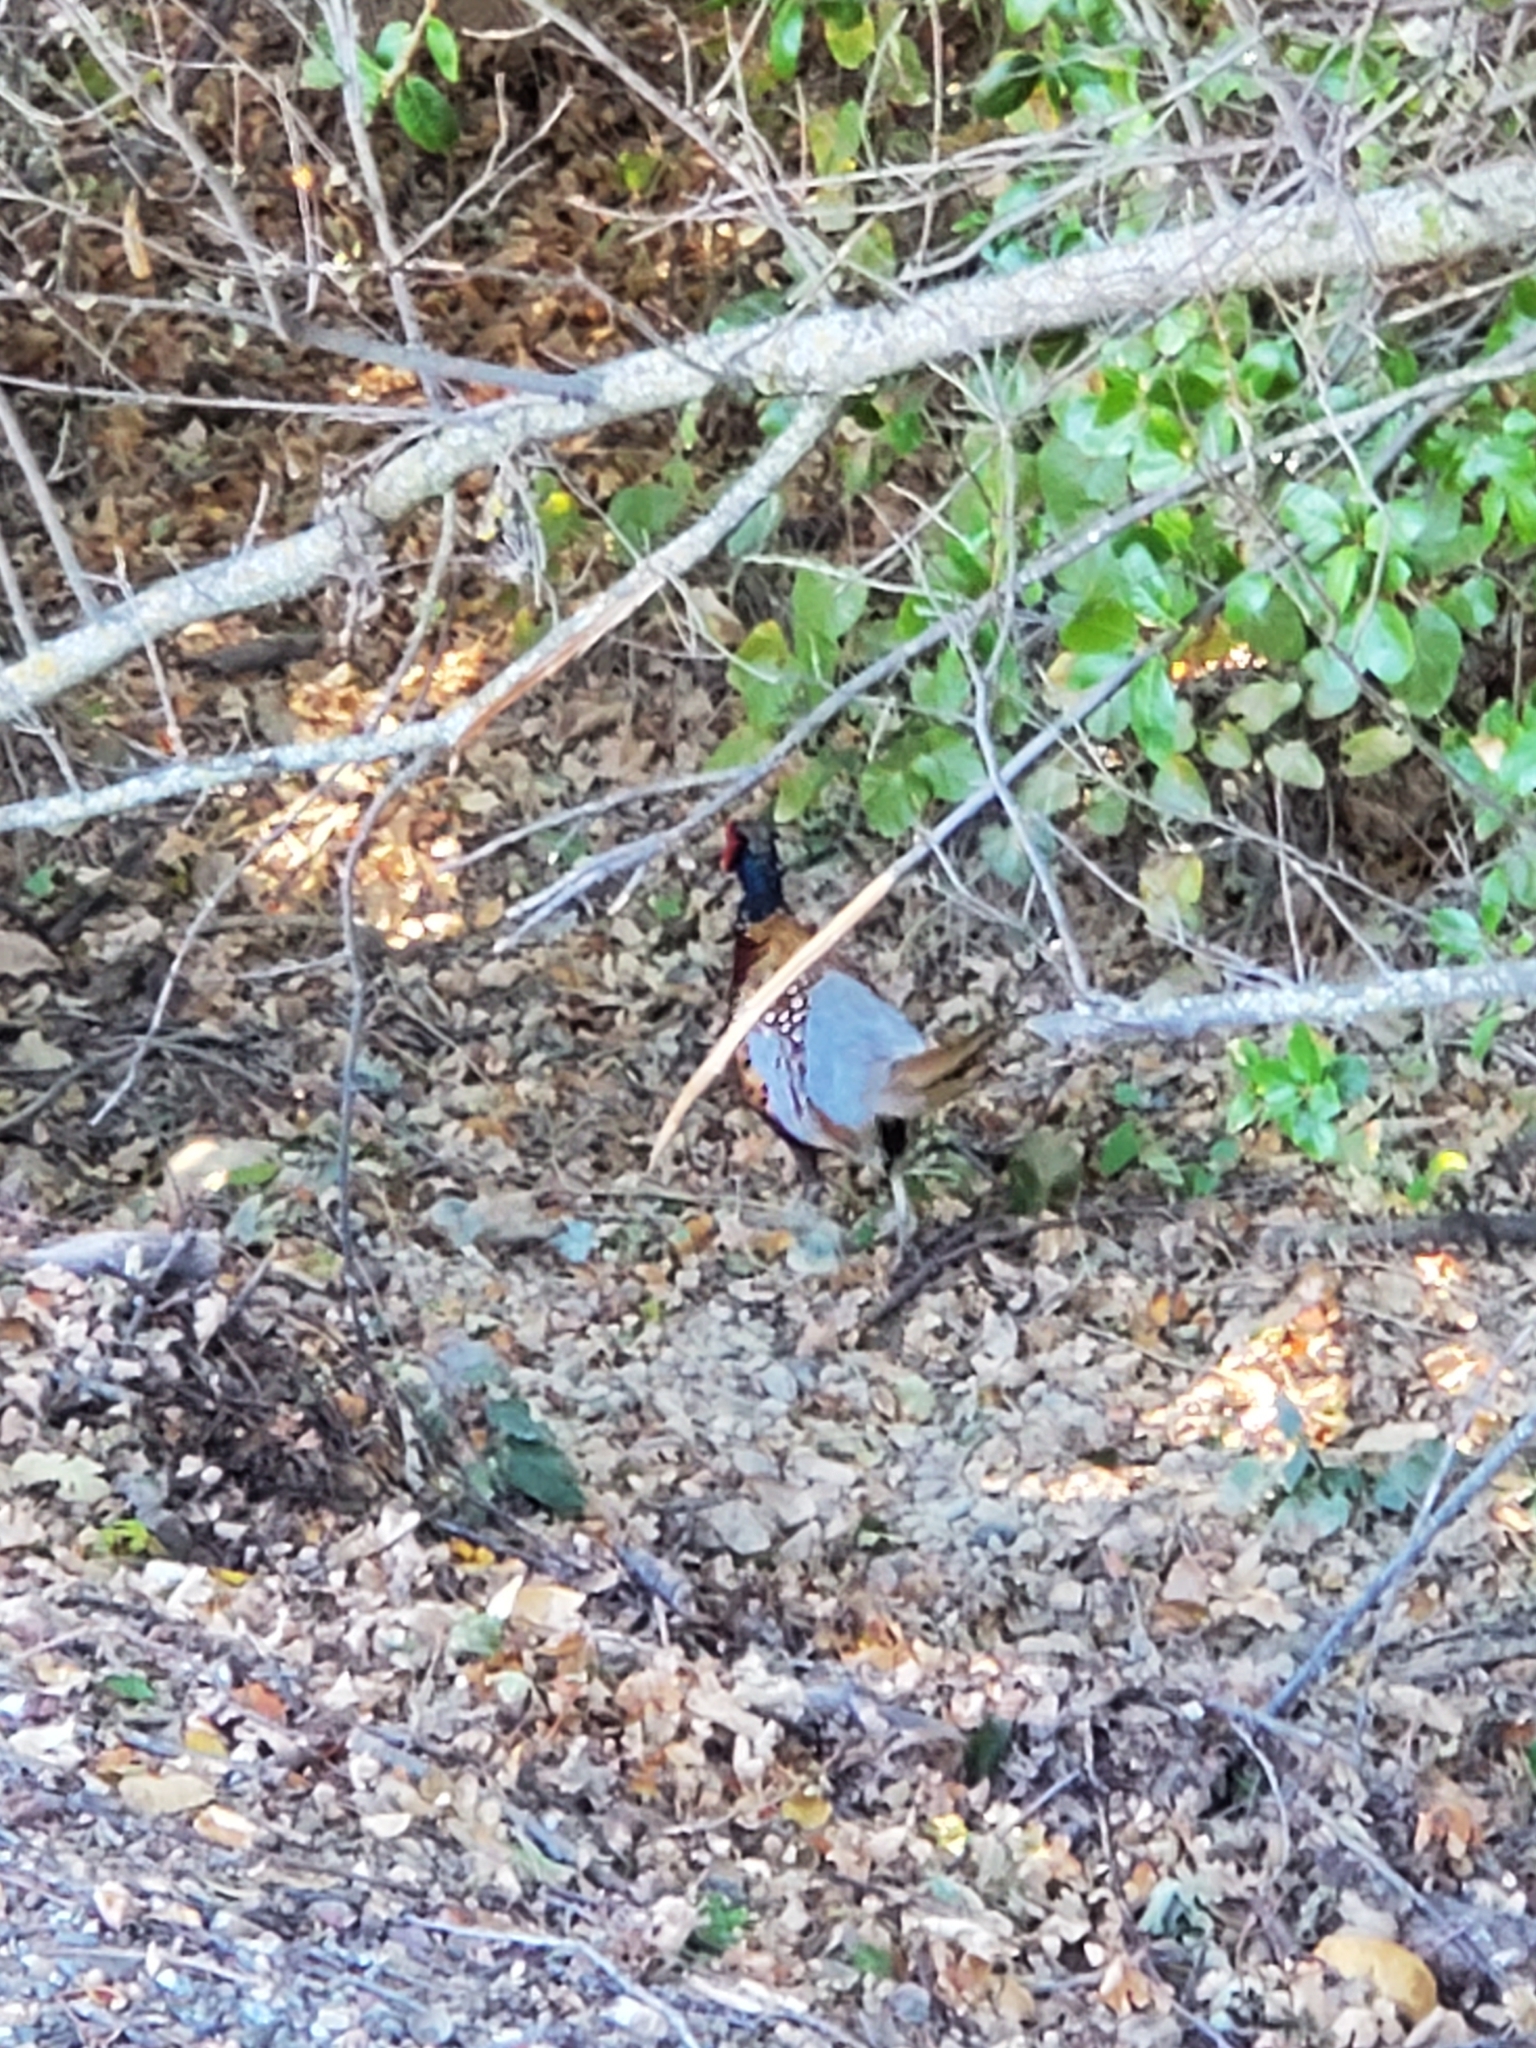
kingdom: Animalia
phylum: Chordata
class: Aves
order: Galliformes
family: Phasianidae
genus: Phasianus
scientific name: Phasianus colchicus
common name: Common pheasant
